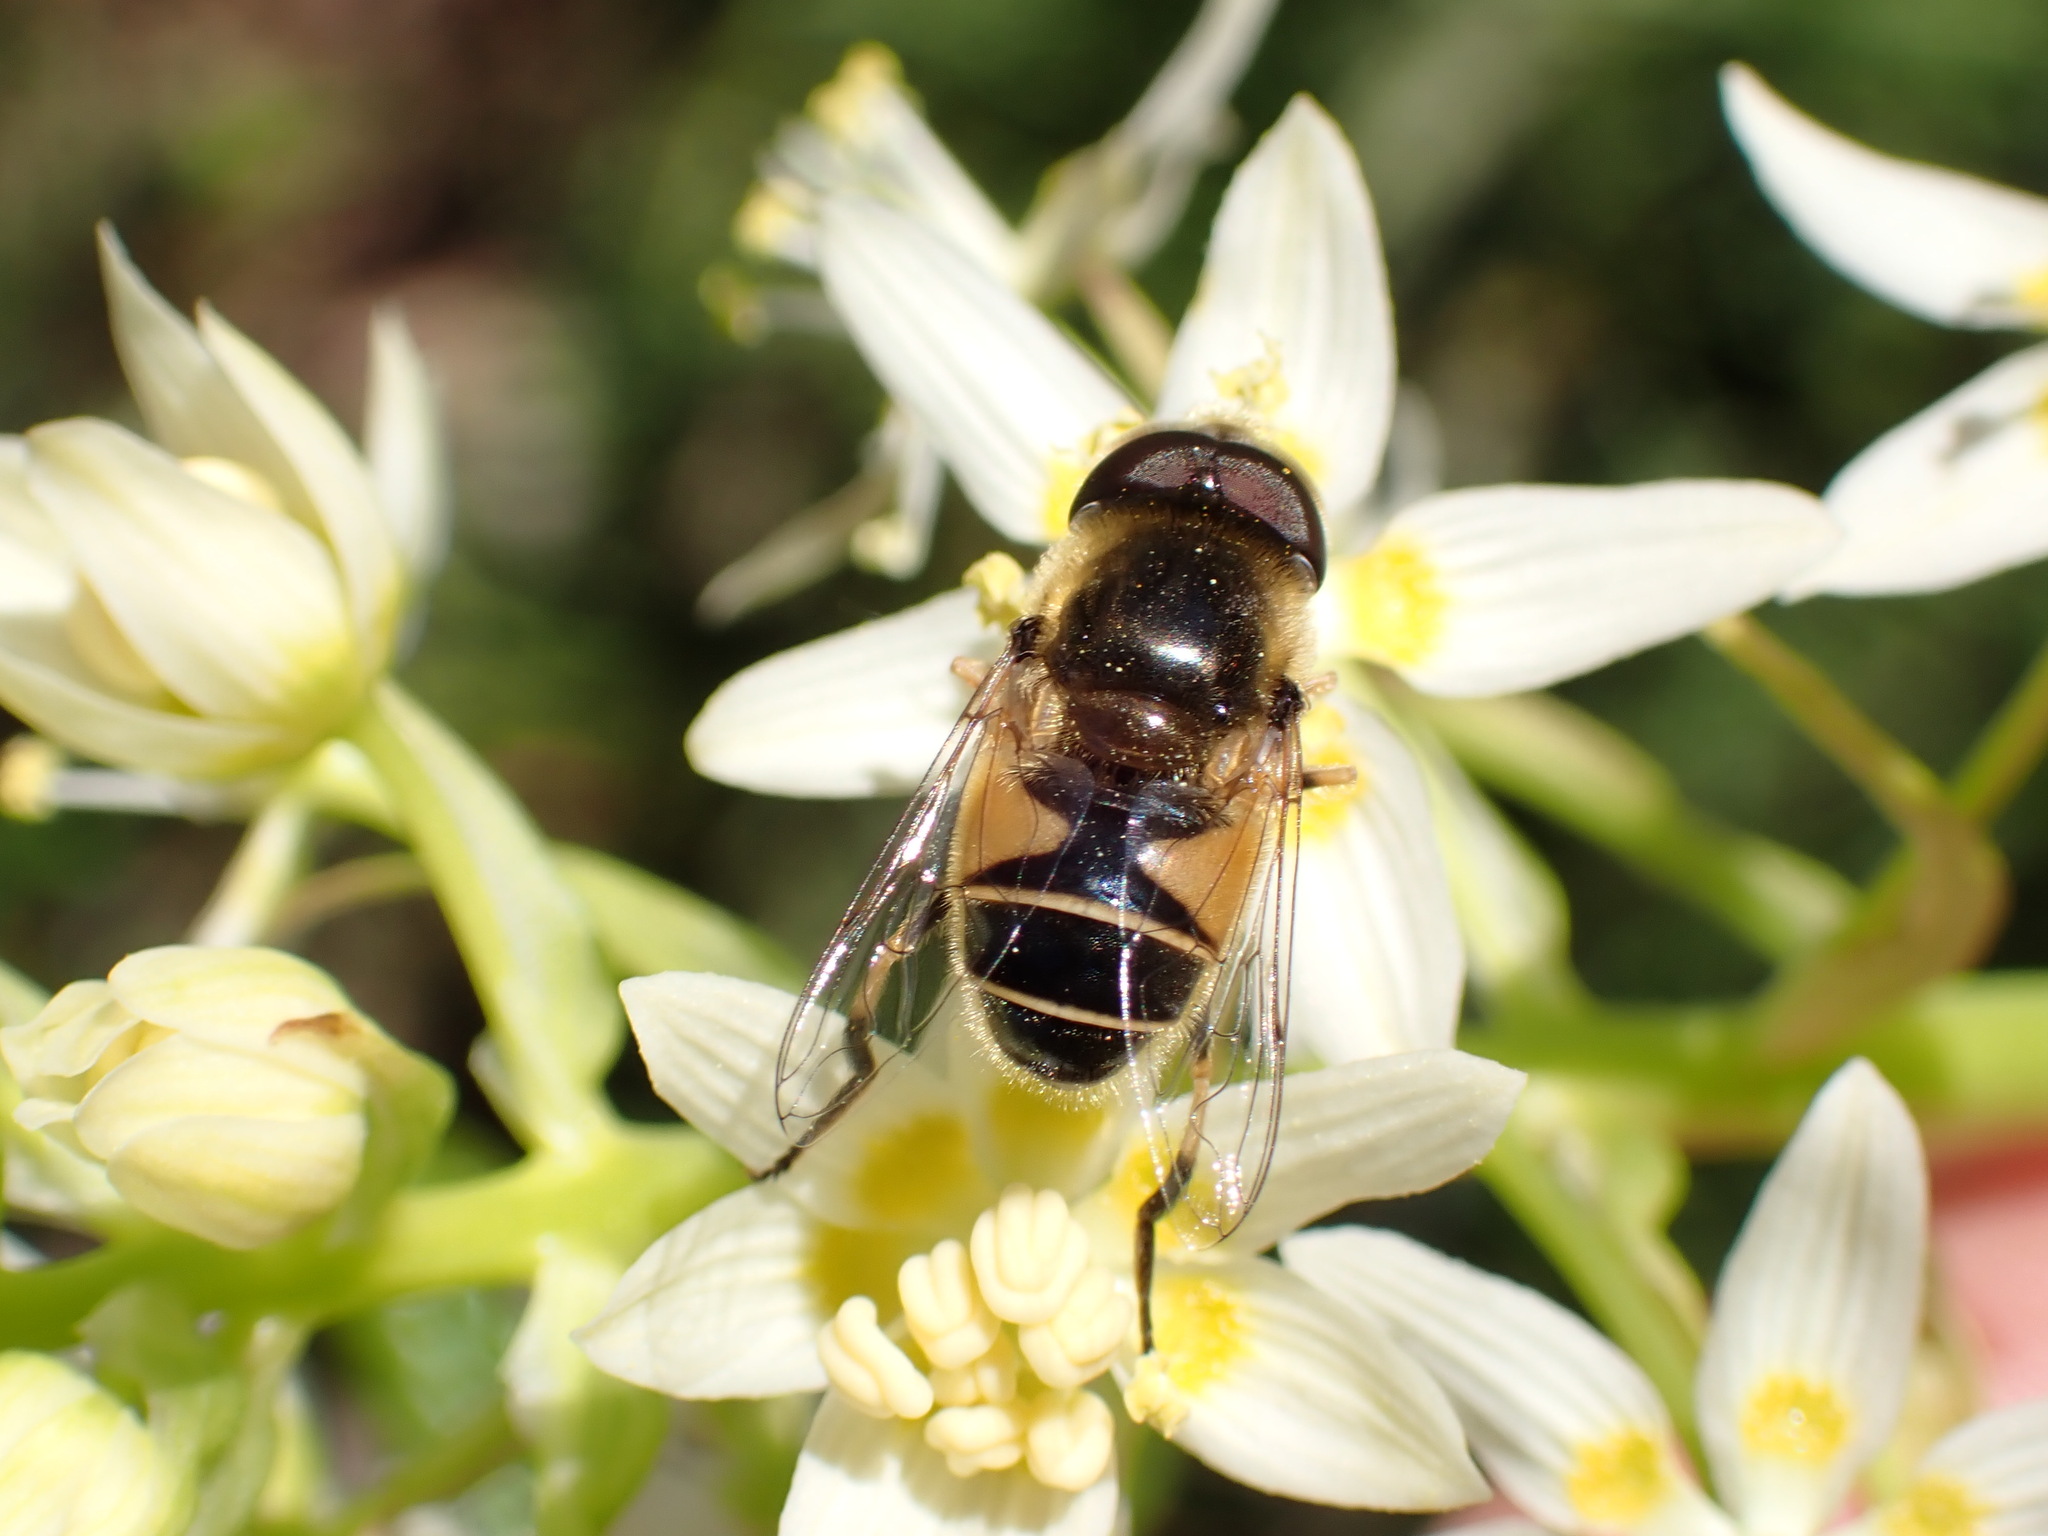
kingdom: Animalia
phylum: Arthropoda
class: Insecta
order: Diptera
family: Syrphidae
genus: Eristalis
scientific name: Eristalis hirta
